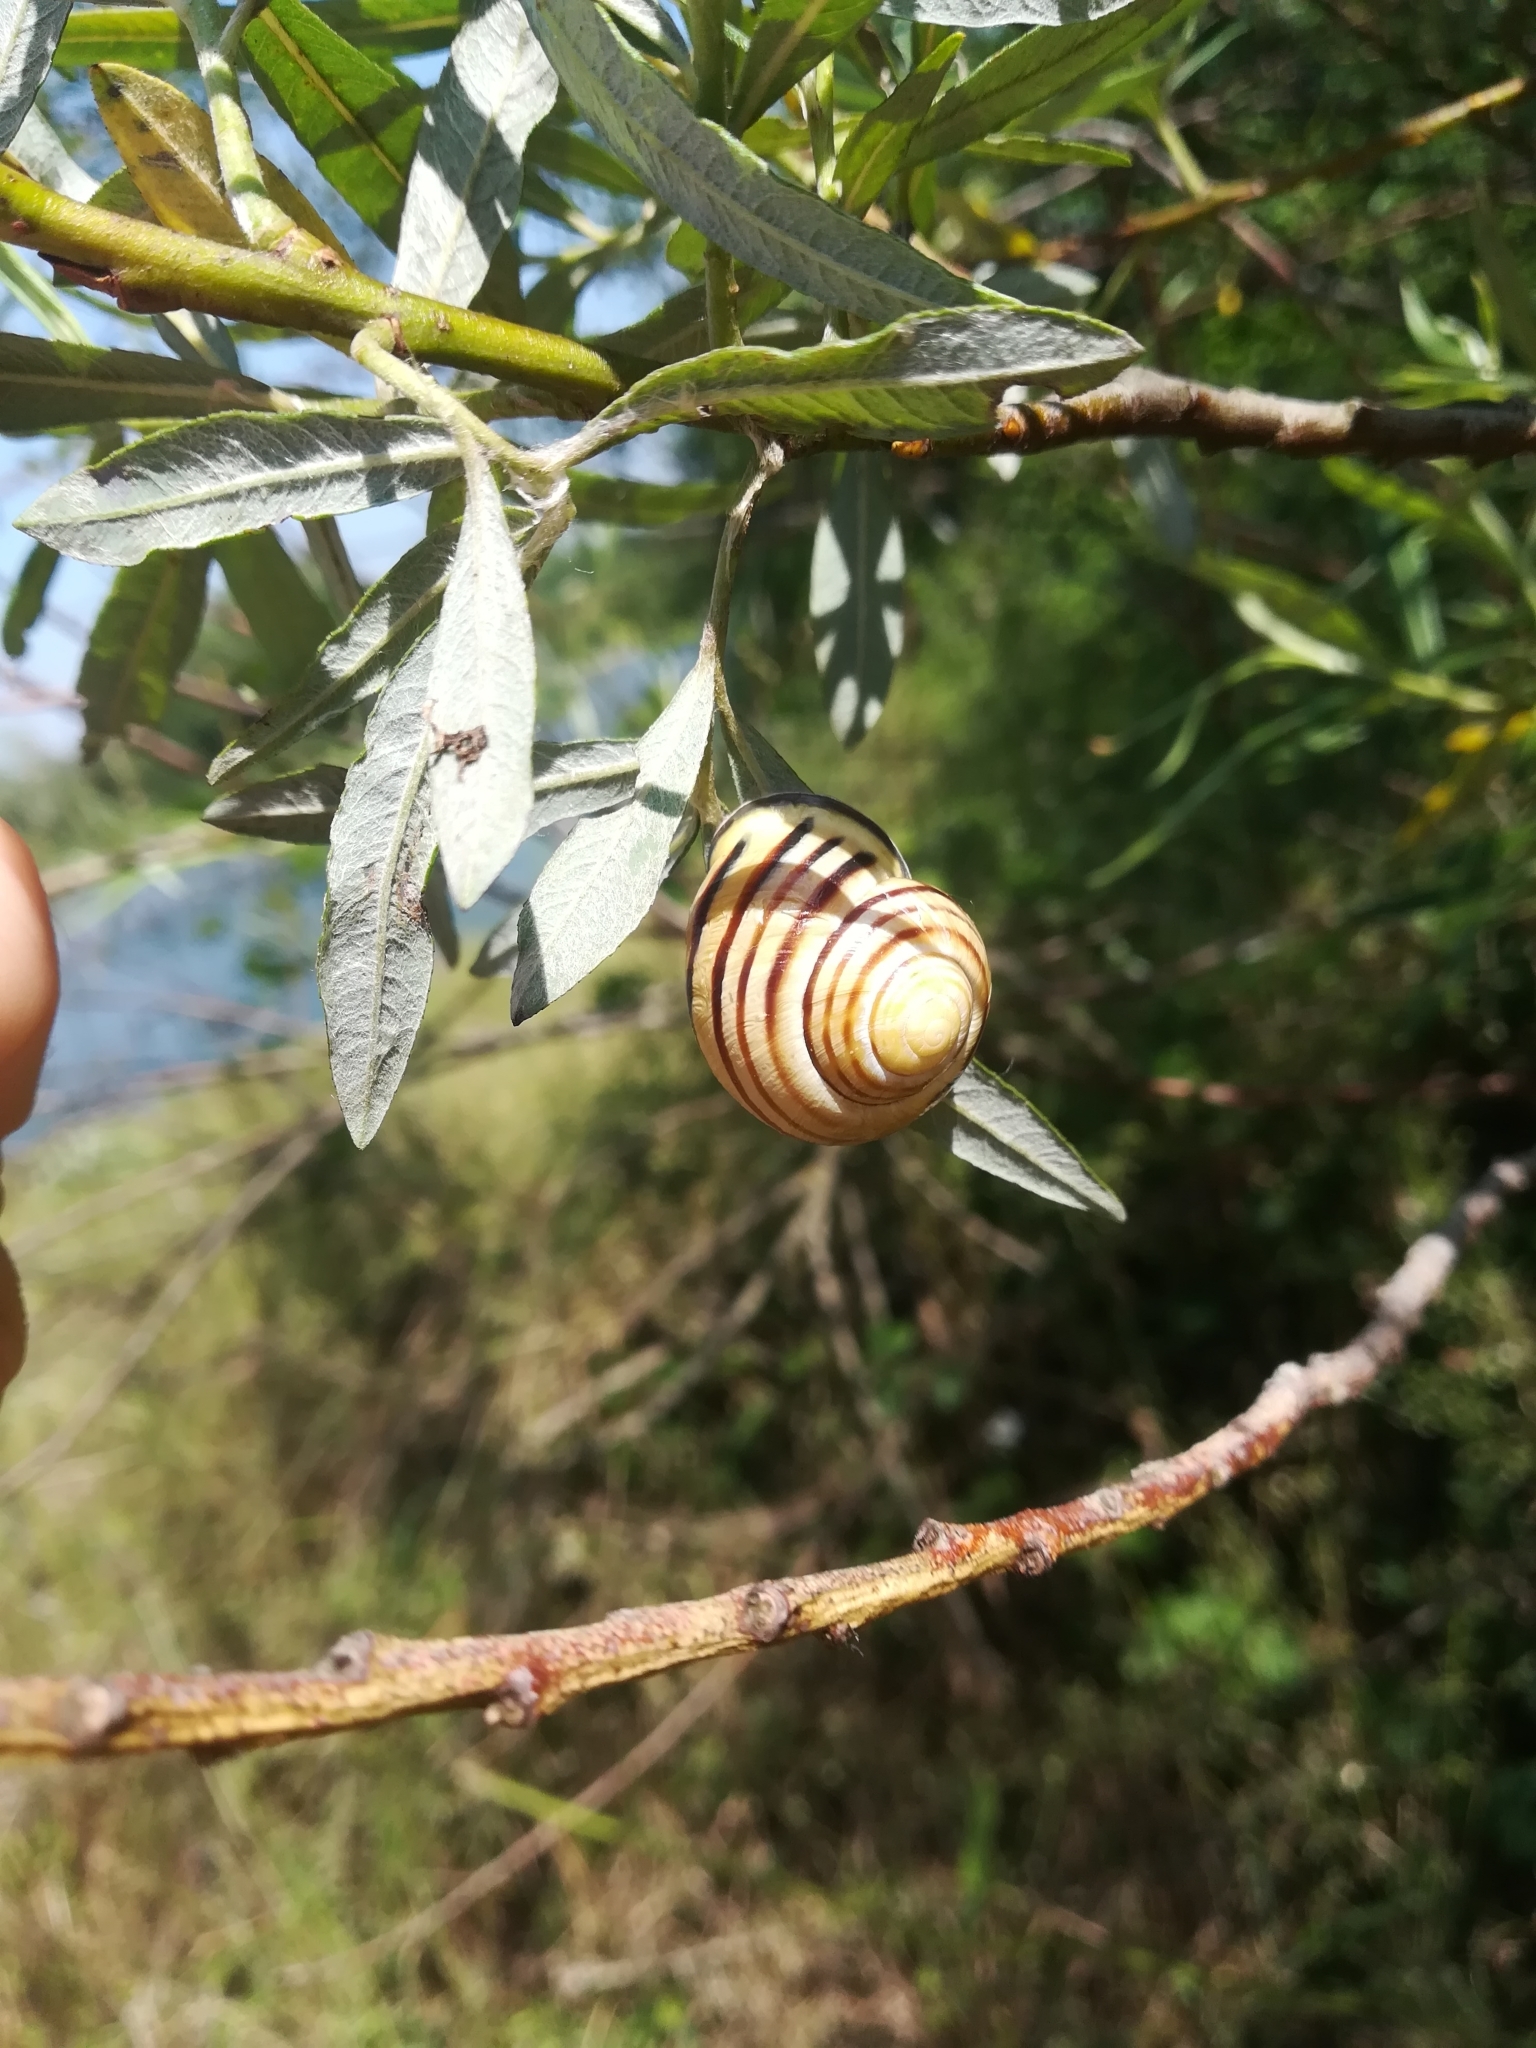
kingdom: Animalia
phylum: Mollusca
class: Gastropoda
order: Stylommatophora
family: Helicidae
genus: Cepaea
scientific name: Cepaea nemoralis
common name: Grovesnail
